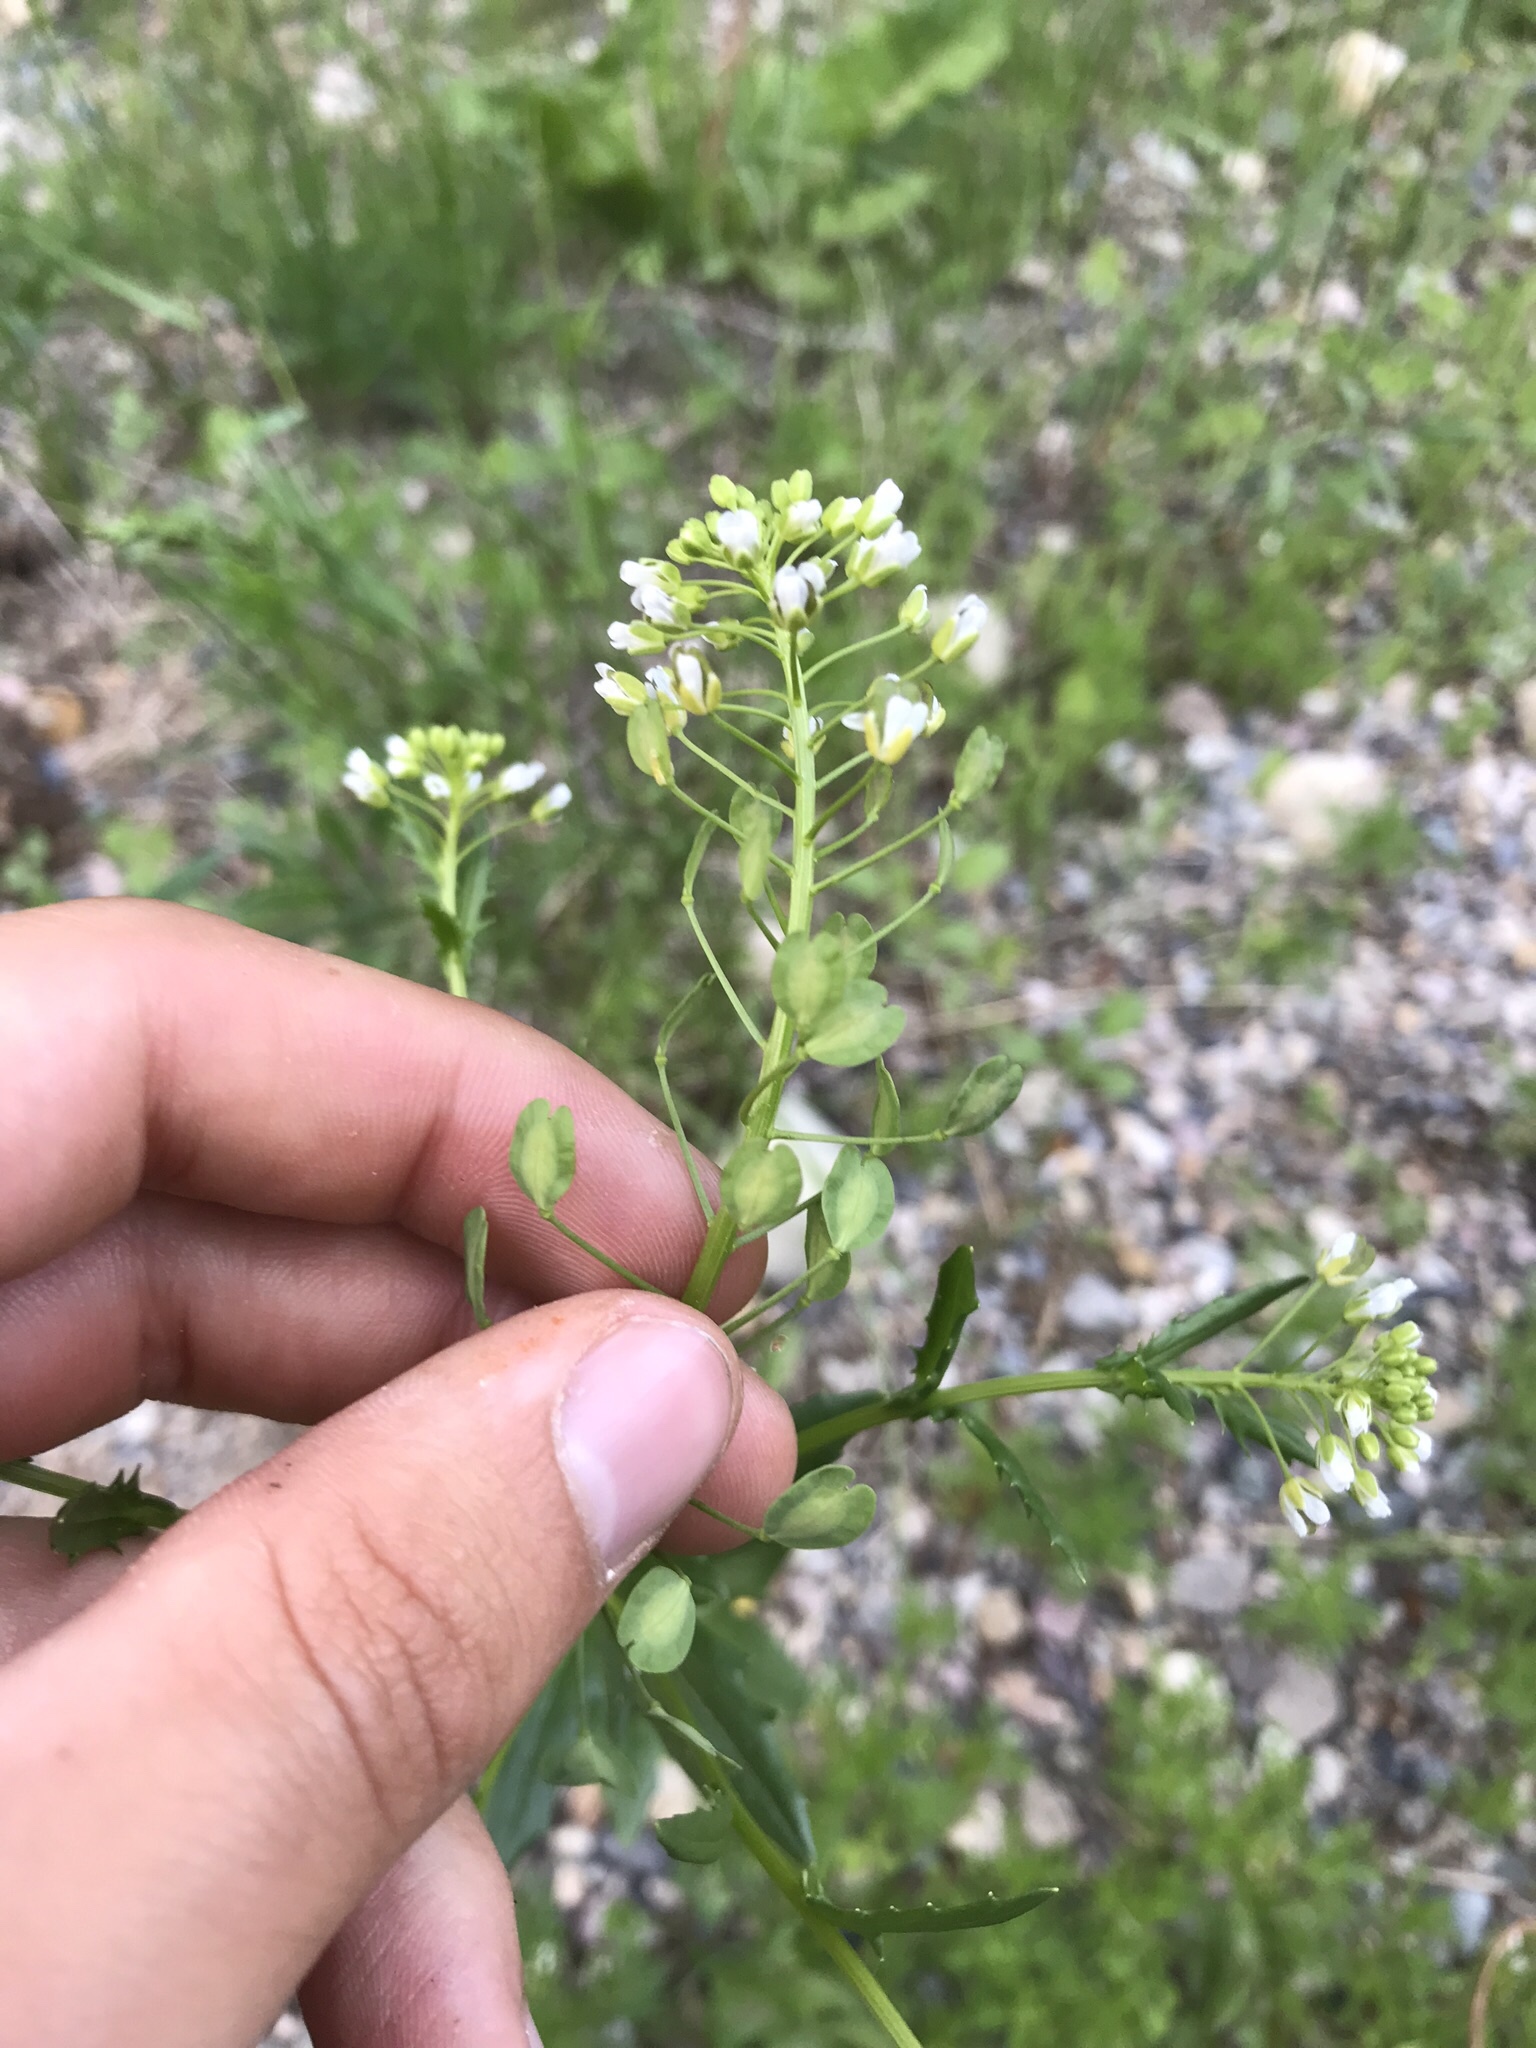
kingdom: Plantae
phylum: Tracheophyta
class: Magnoliopsida
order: Brassicales
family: Brassicaceae
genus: Thlaspi
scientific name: Thlaspi arvense
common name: Field pennycress
